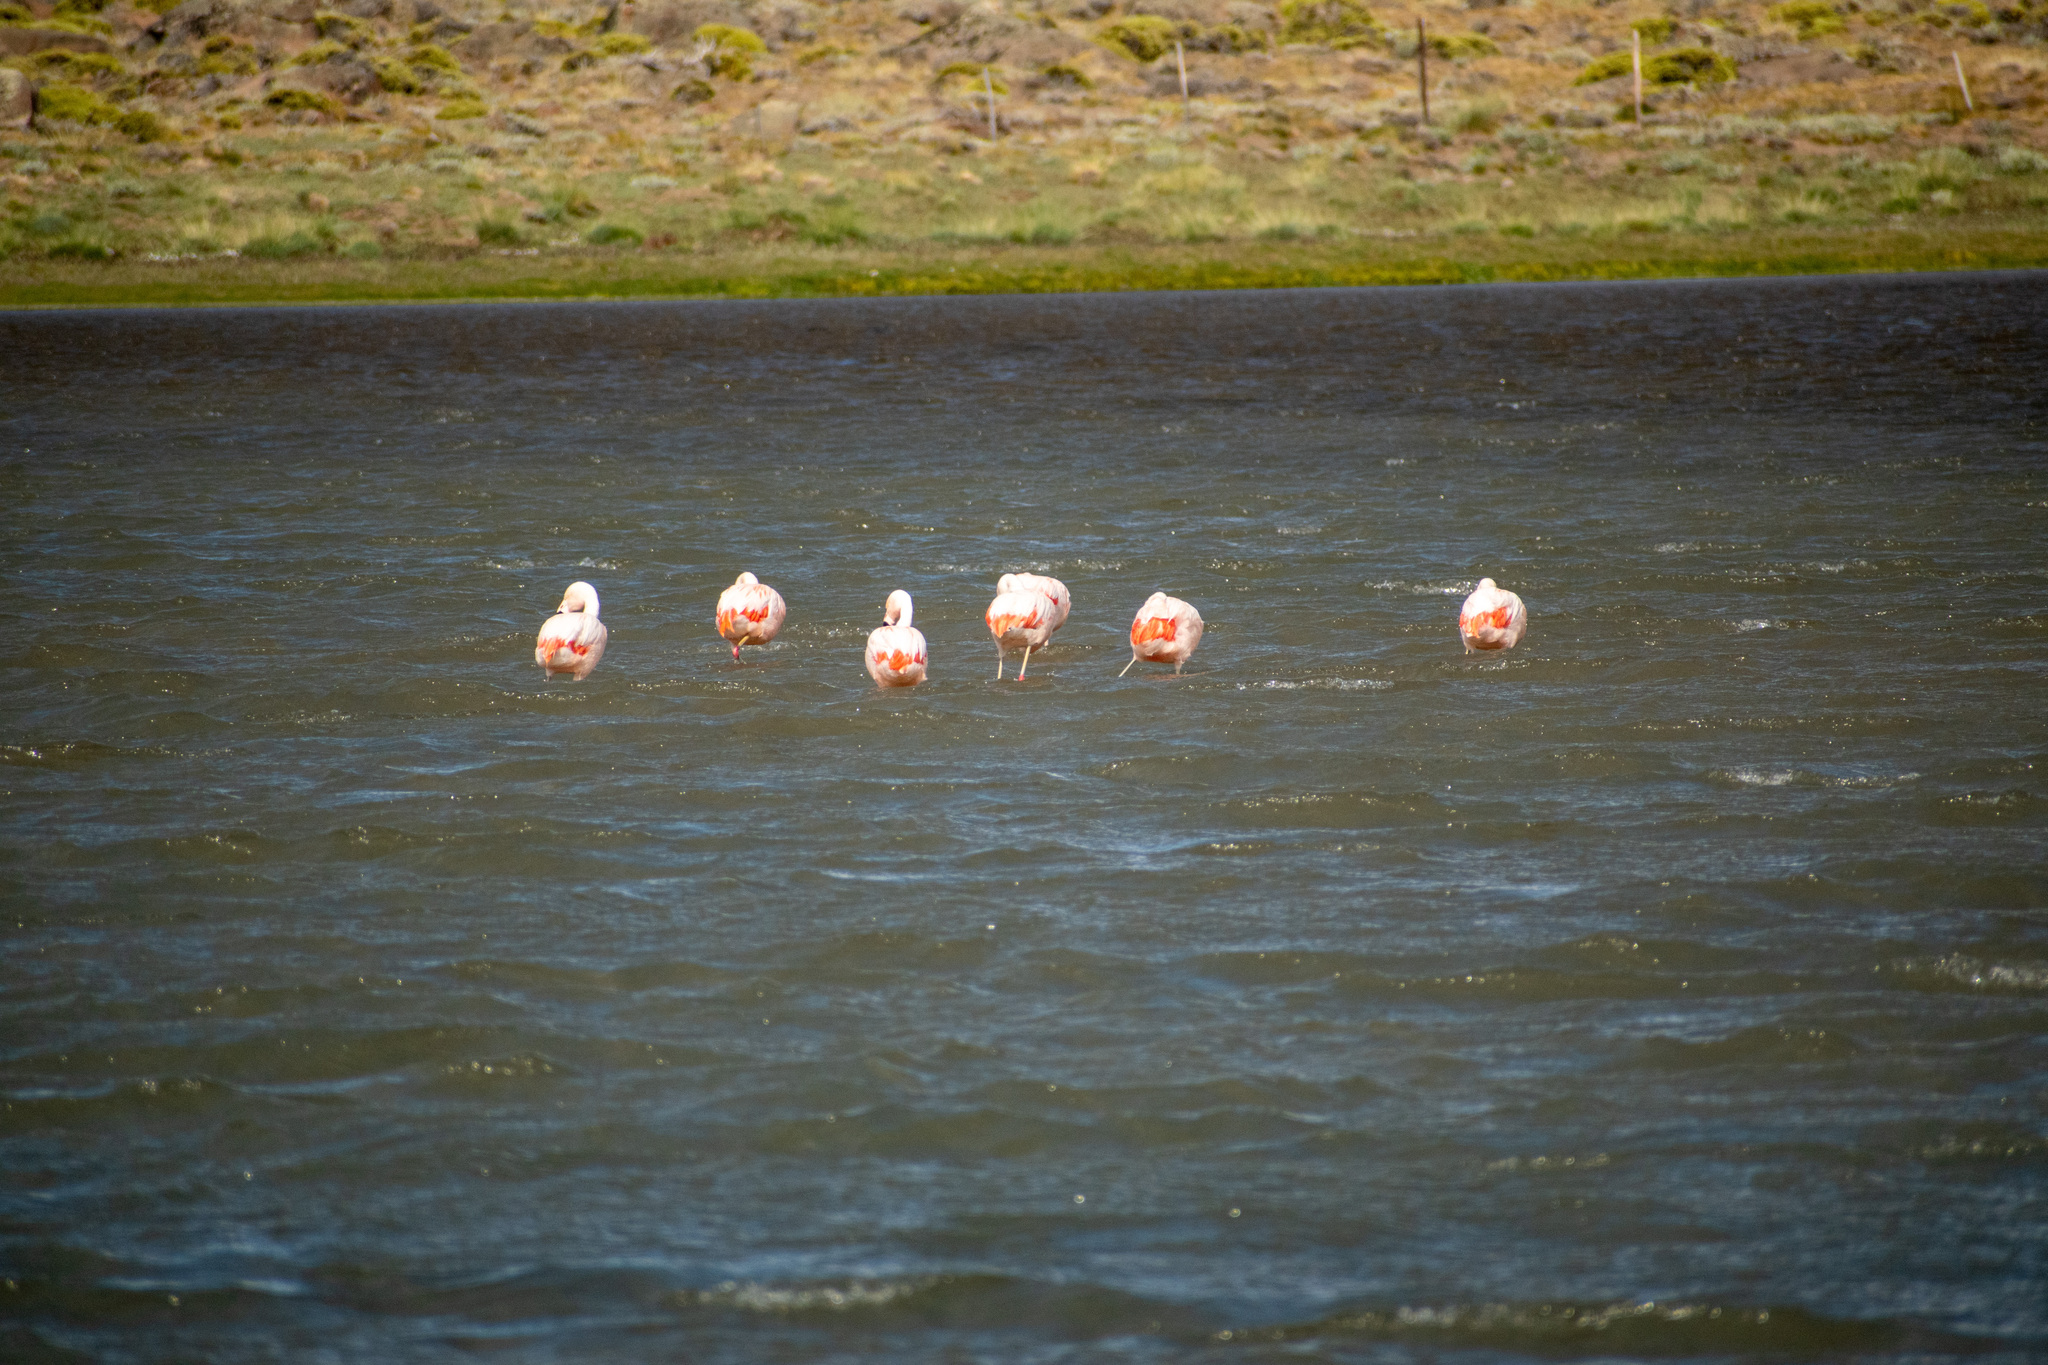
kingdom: Animalia
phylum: Chordata
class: Aves
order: Phoenicopteriformes
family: Phoenicopteridae
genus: Phoenicopterus
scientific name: Phoenicopterus chilensis
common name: Chilean flamingo
